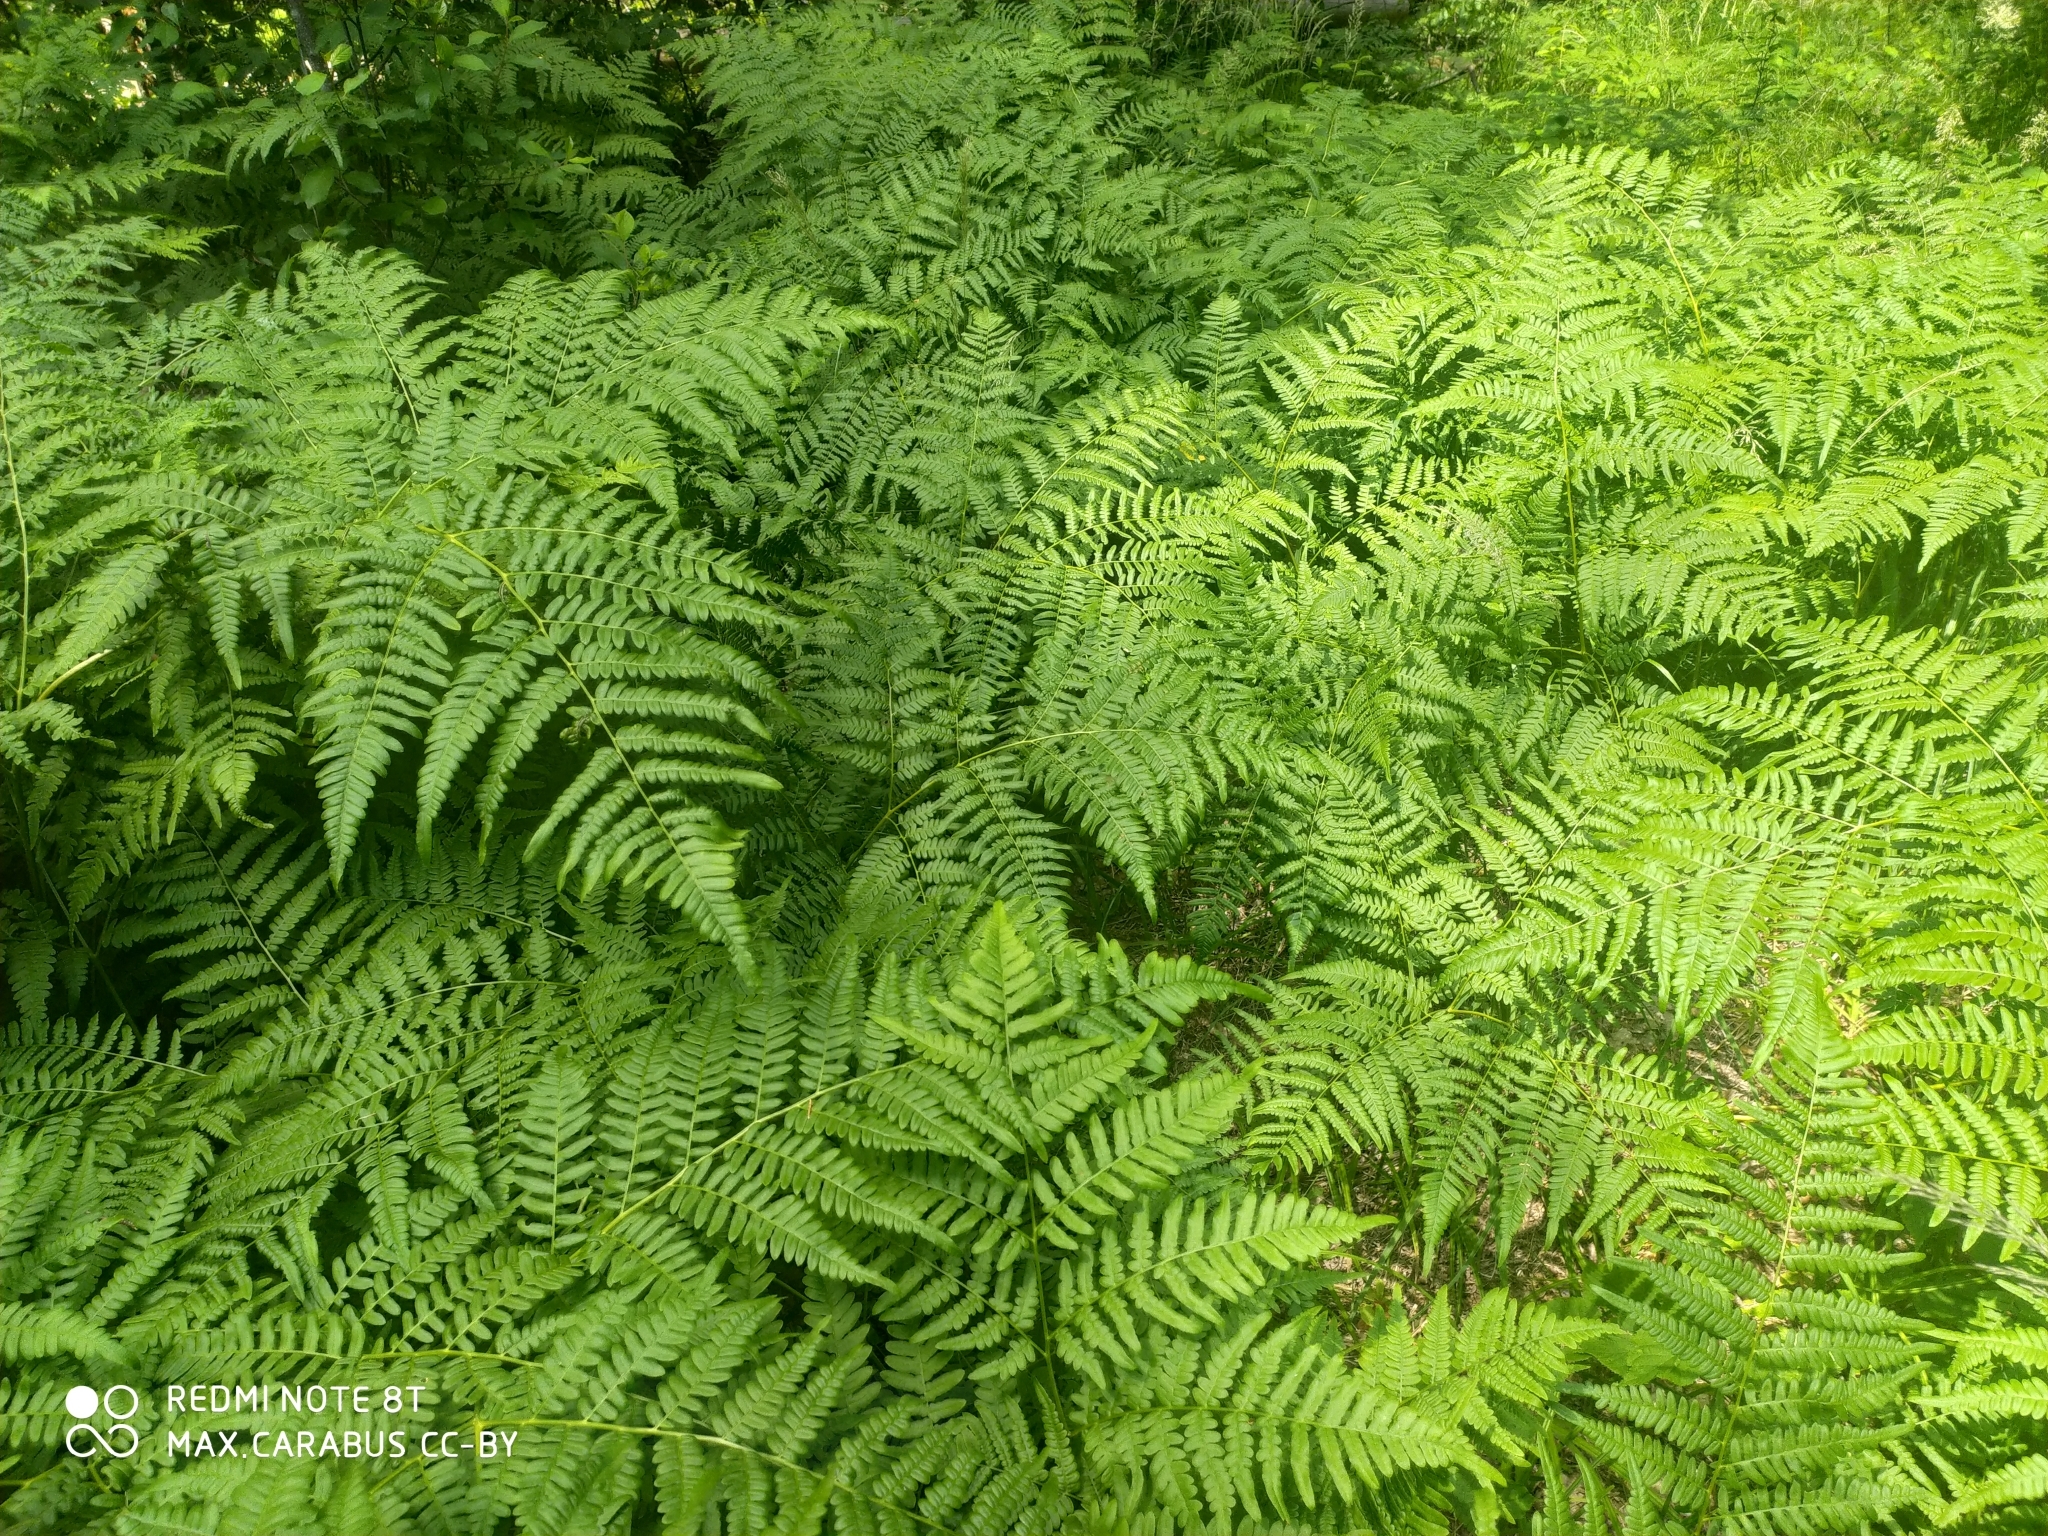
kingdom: Plantae
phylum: Tracheophyta
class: Polypodiopsida
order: Polypodiales
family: Dennstaedtiaceae
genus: Pteridium
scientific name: Pteridium aquilinum
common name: Bracken
